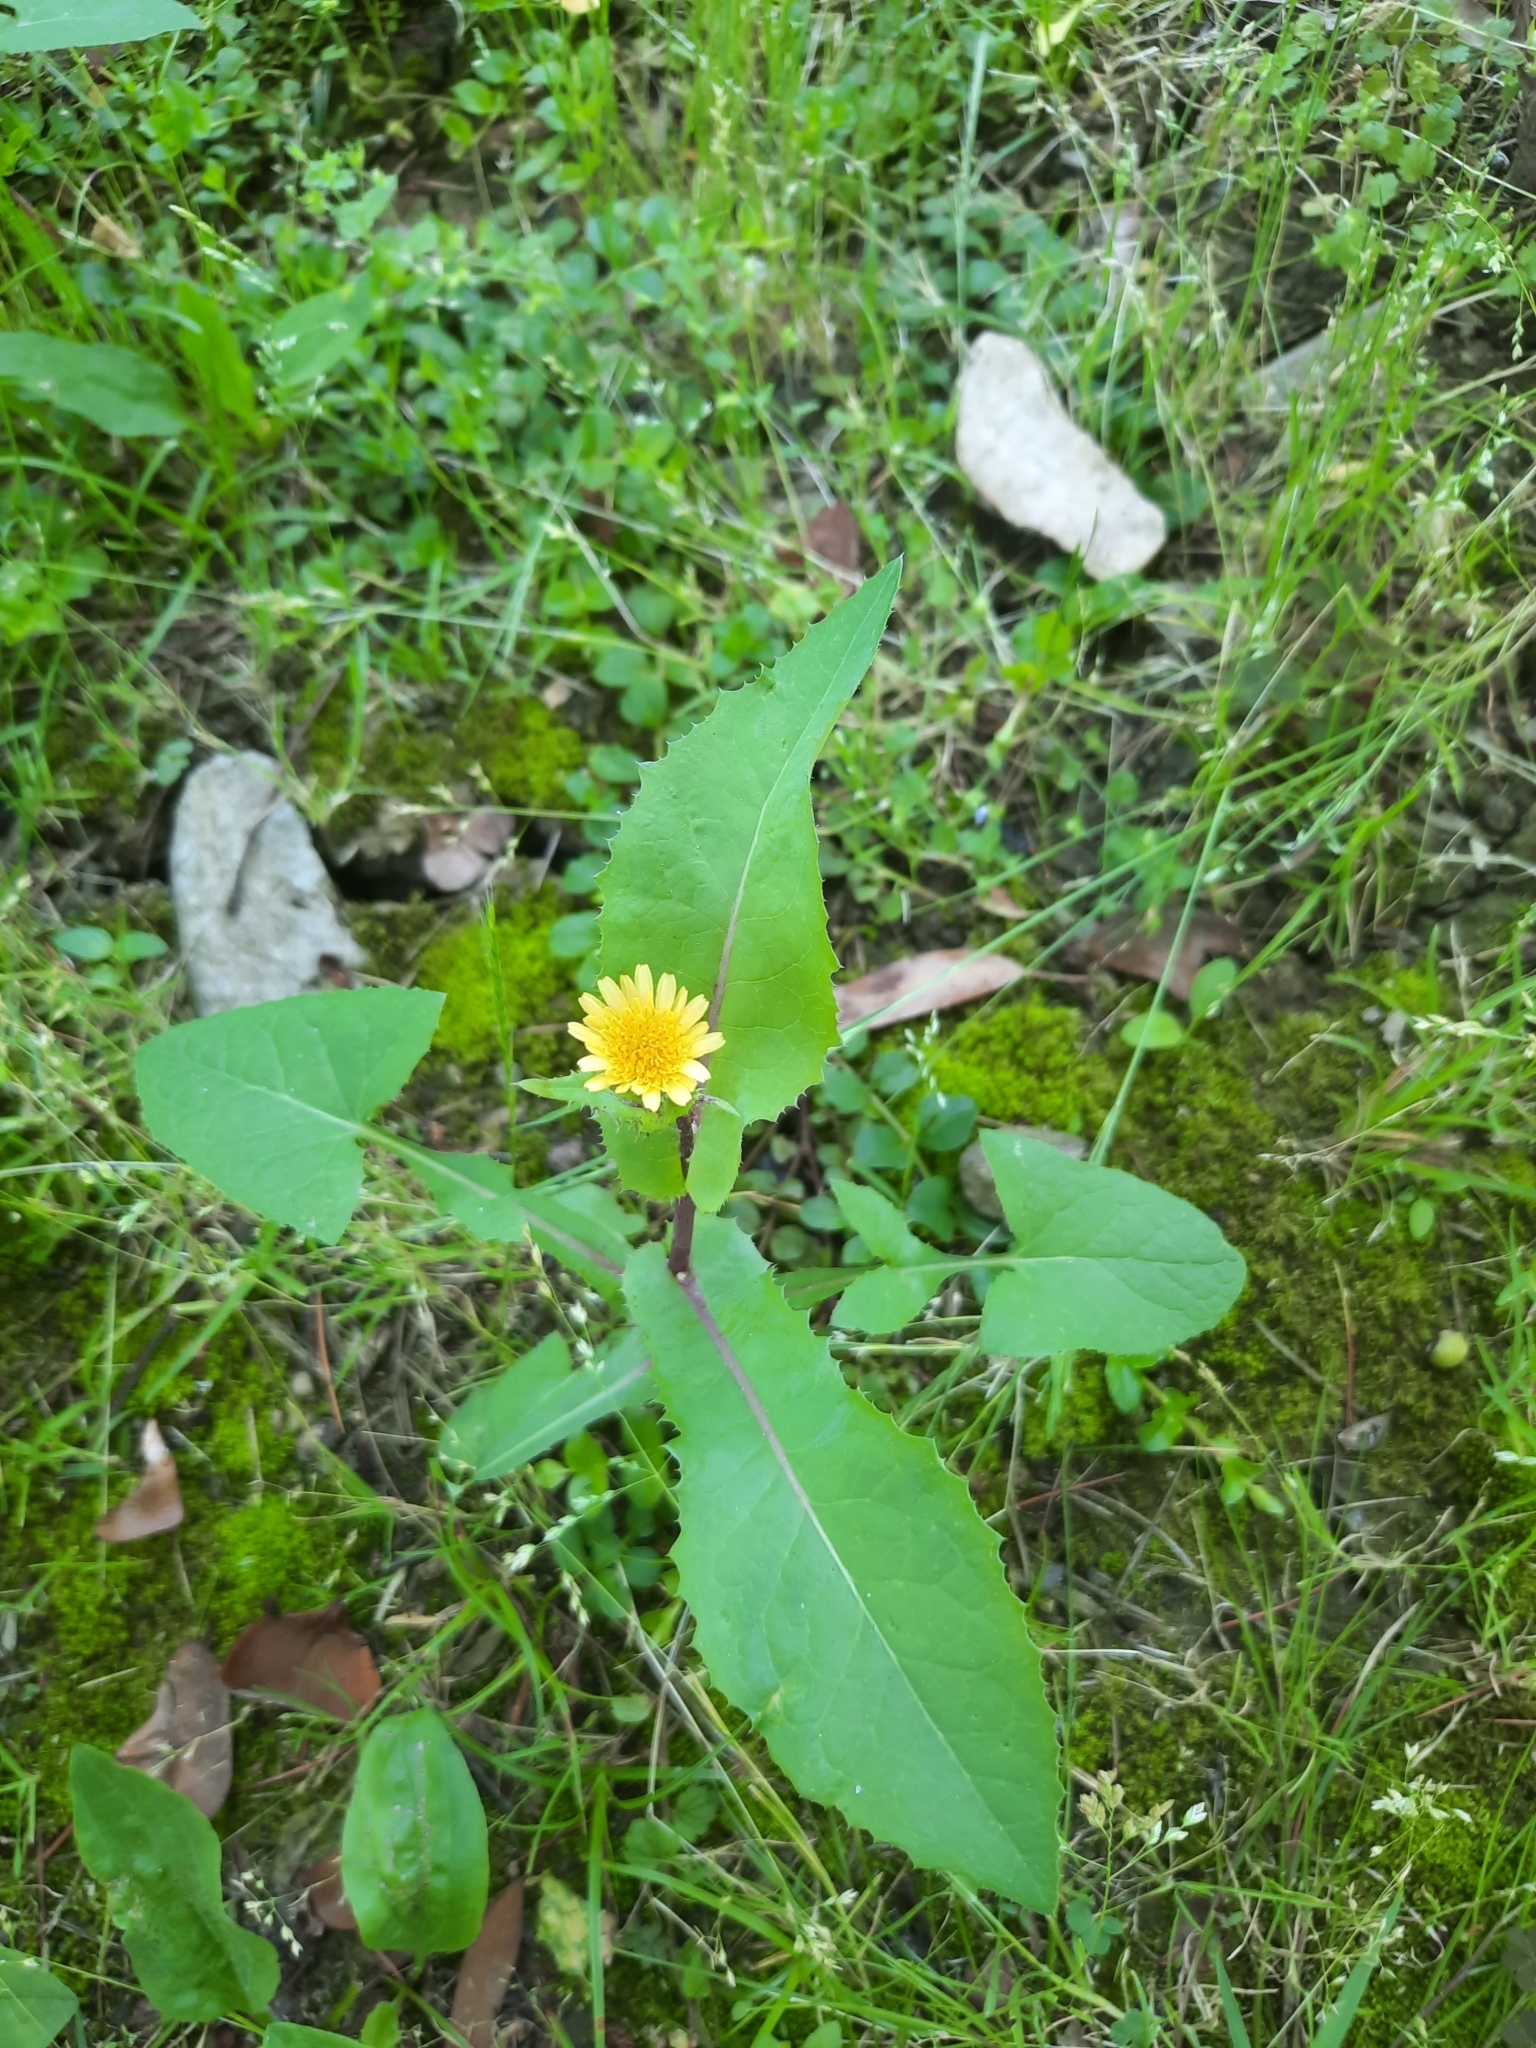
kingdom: Plantae
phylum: Tracheophyta
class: Magnoliopsida
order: Asterales
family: Asteraceae
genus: Sonchus
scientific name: Sonchus oleraceus
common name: Common sowthistle
